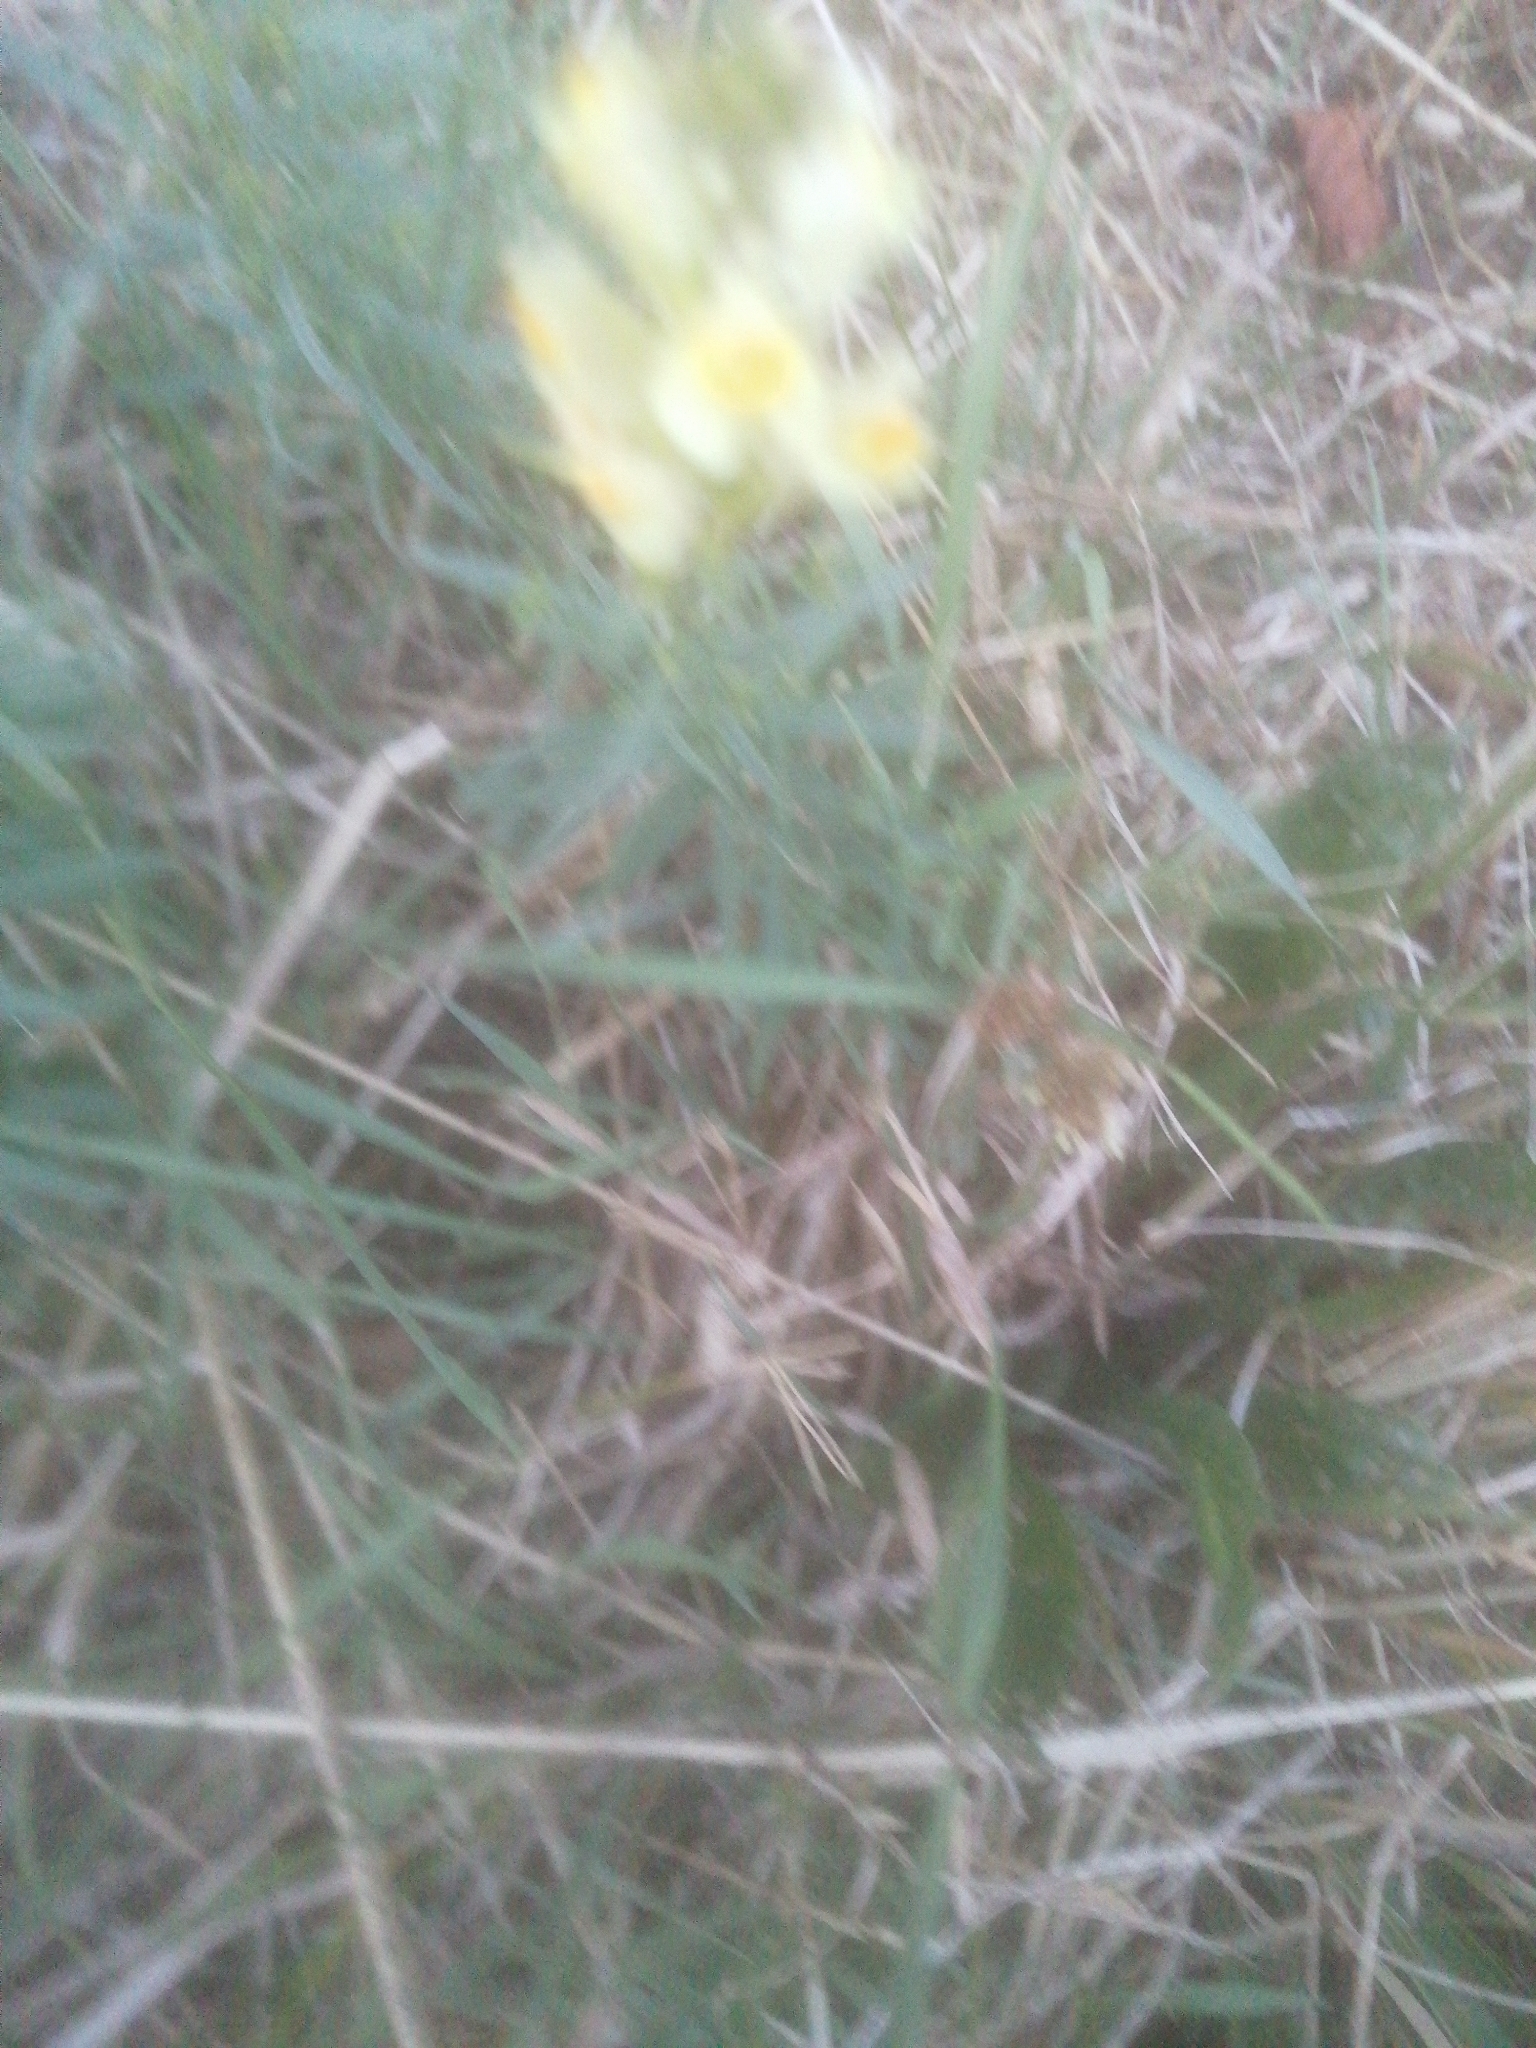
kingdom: Plantae
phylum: Tracheophyta
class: Magnoliopsida
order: Lamiales
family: Plantaginaceae
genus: Linaria
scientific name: Linaria vulgaris
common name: Butter and eggs
